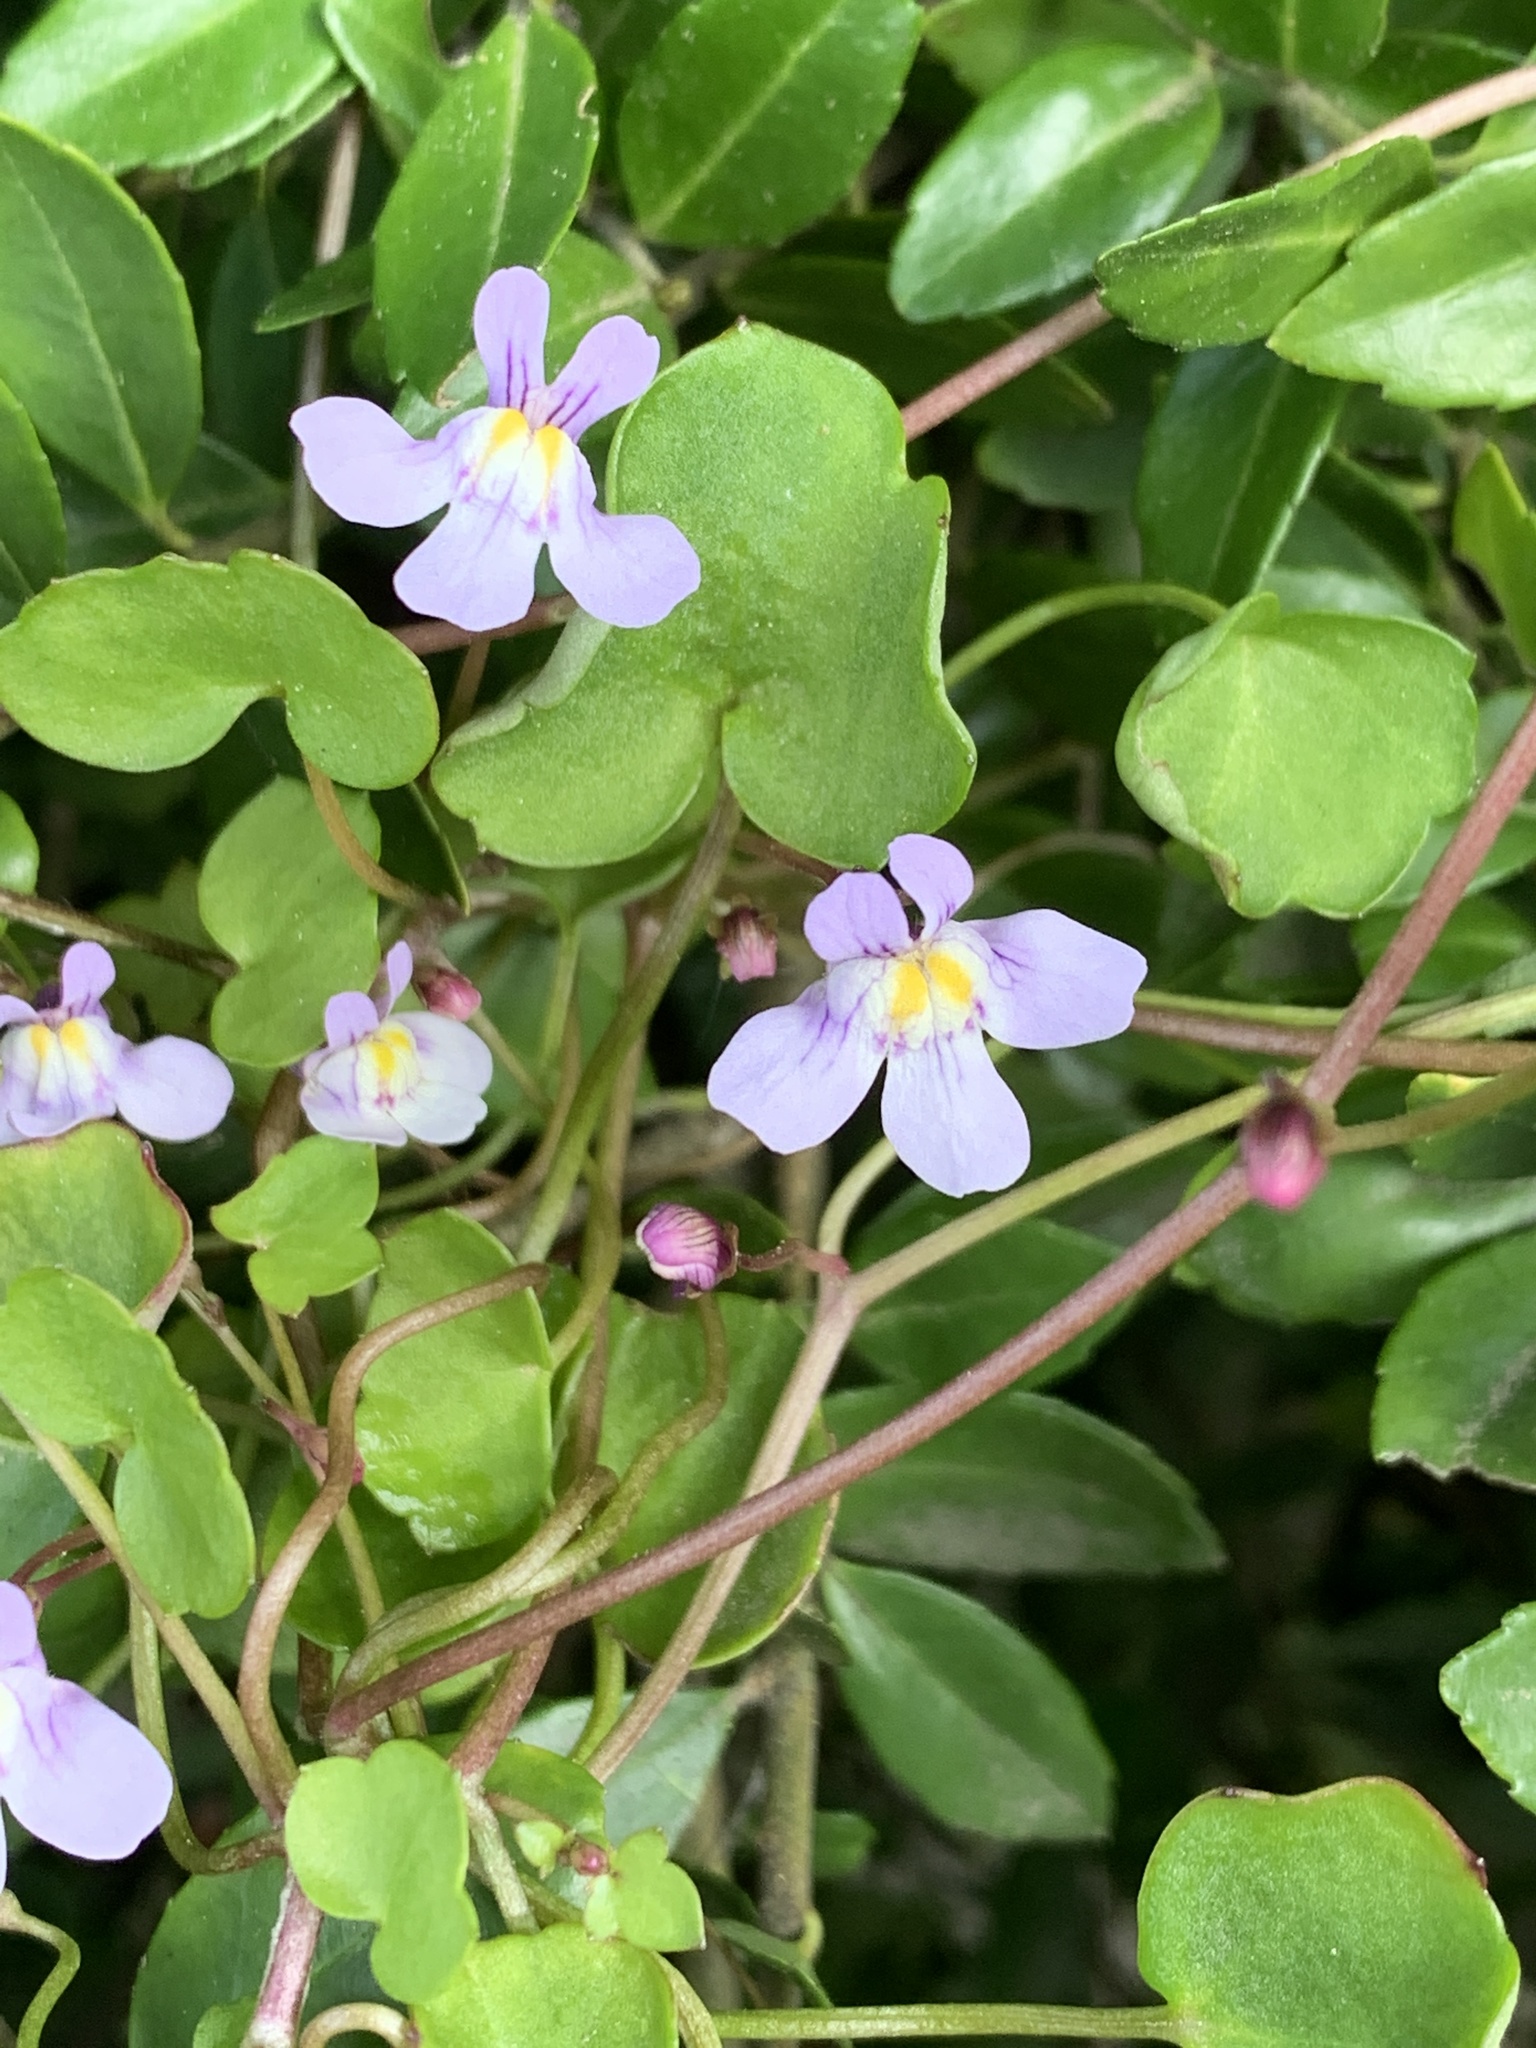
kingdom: Plantae
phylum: Tracheophyta
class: Magnoliopsida
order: Lamiales
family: Plantaginaceae
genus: Cymbalaria
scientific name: Cymbalaria muralis
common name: Ivy-leaved toadflax
